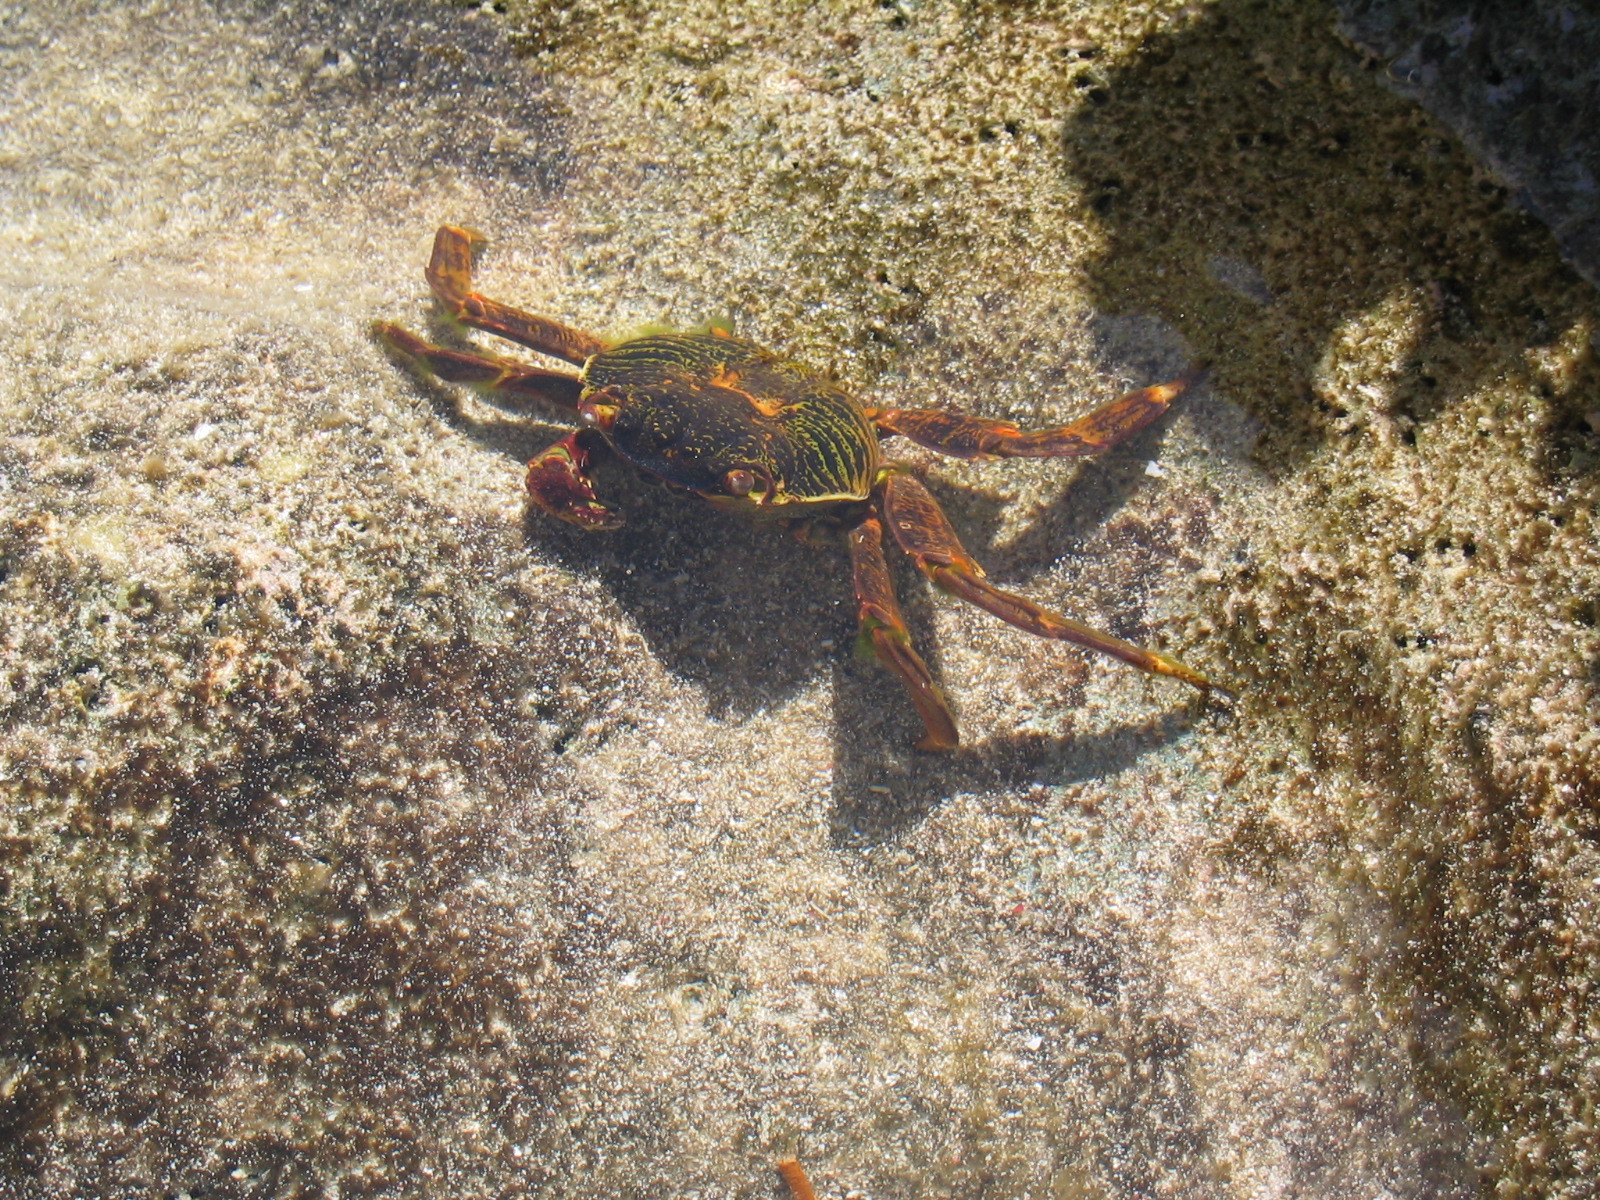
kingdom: Animalia
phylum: Arthropoda
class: Malacostraca
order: Decapoda
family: Grapsidae
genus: Grapsus
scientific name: Grapsus albolineatus
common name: Mottled lightfoot crab
